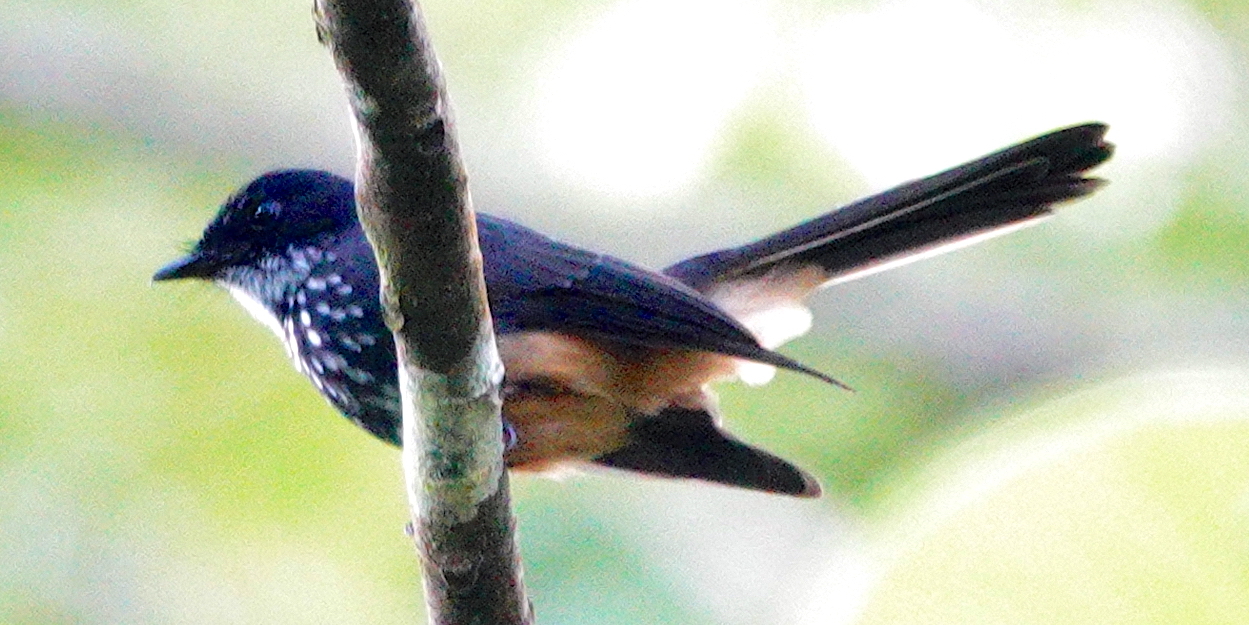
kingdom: Animalia
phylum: Chordata
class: Aves
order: Passeriformes
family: Rhipiduridae
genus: Rhipidura
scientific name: Rhipidura rufiventris
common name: Northern fantail
